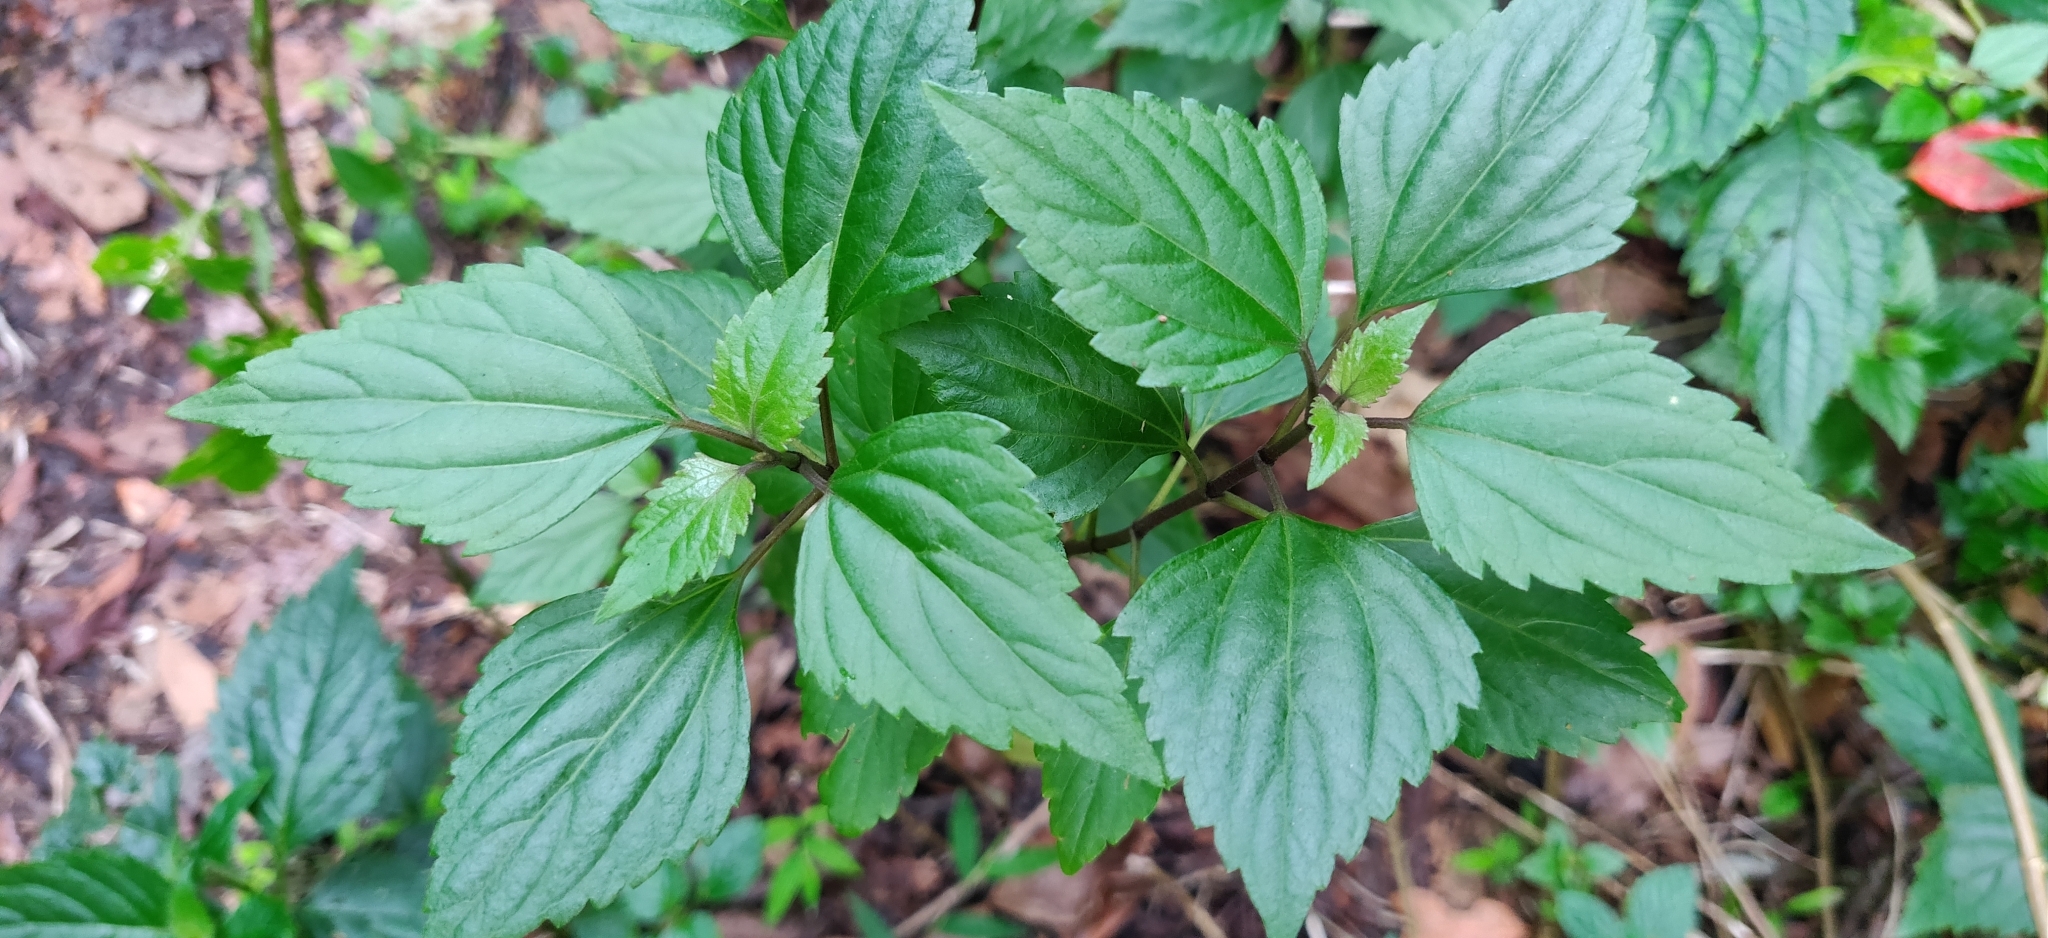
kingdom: Plantae
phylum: Tracheophyta
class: Magnoliopsida
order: Asterales
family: Asteraceae
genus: Ageratina
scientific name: Ageratina adenophora
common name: Sticky snakeroot
